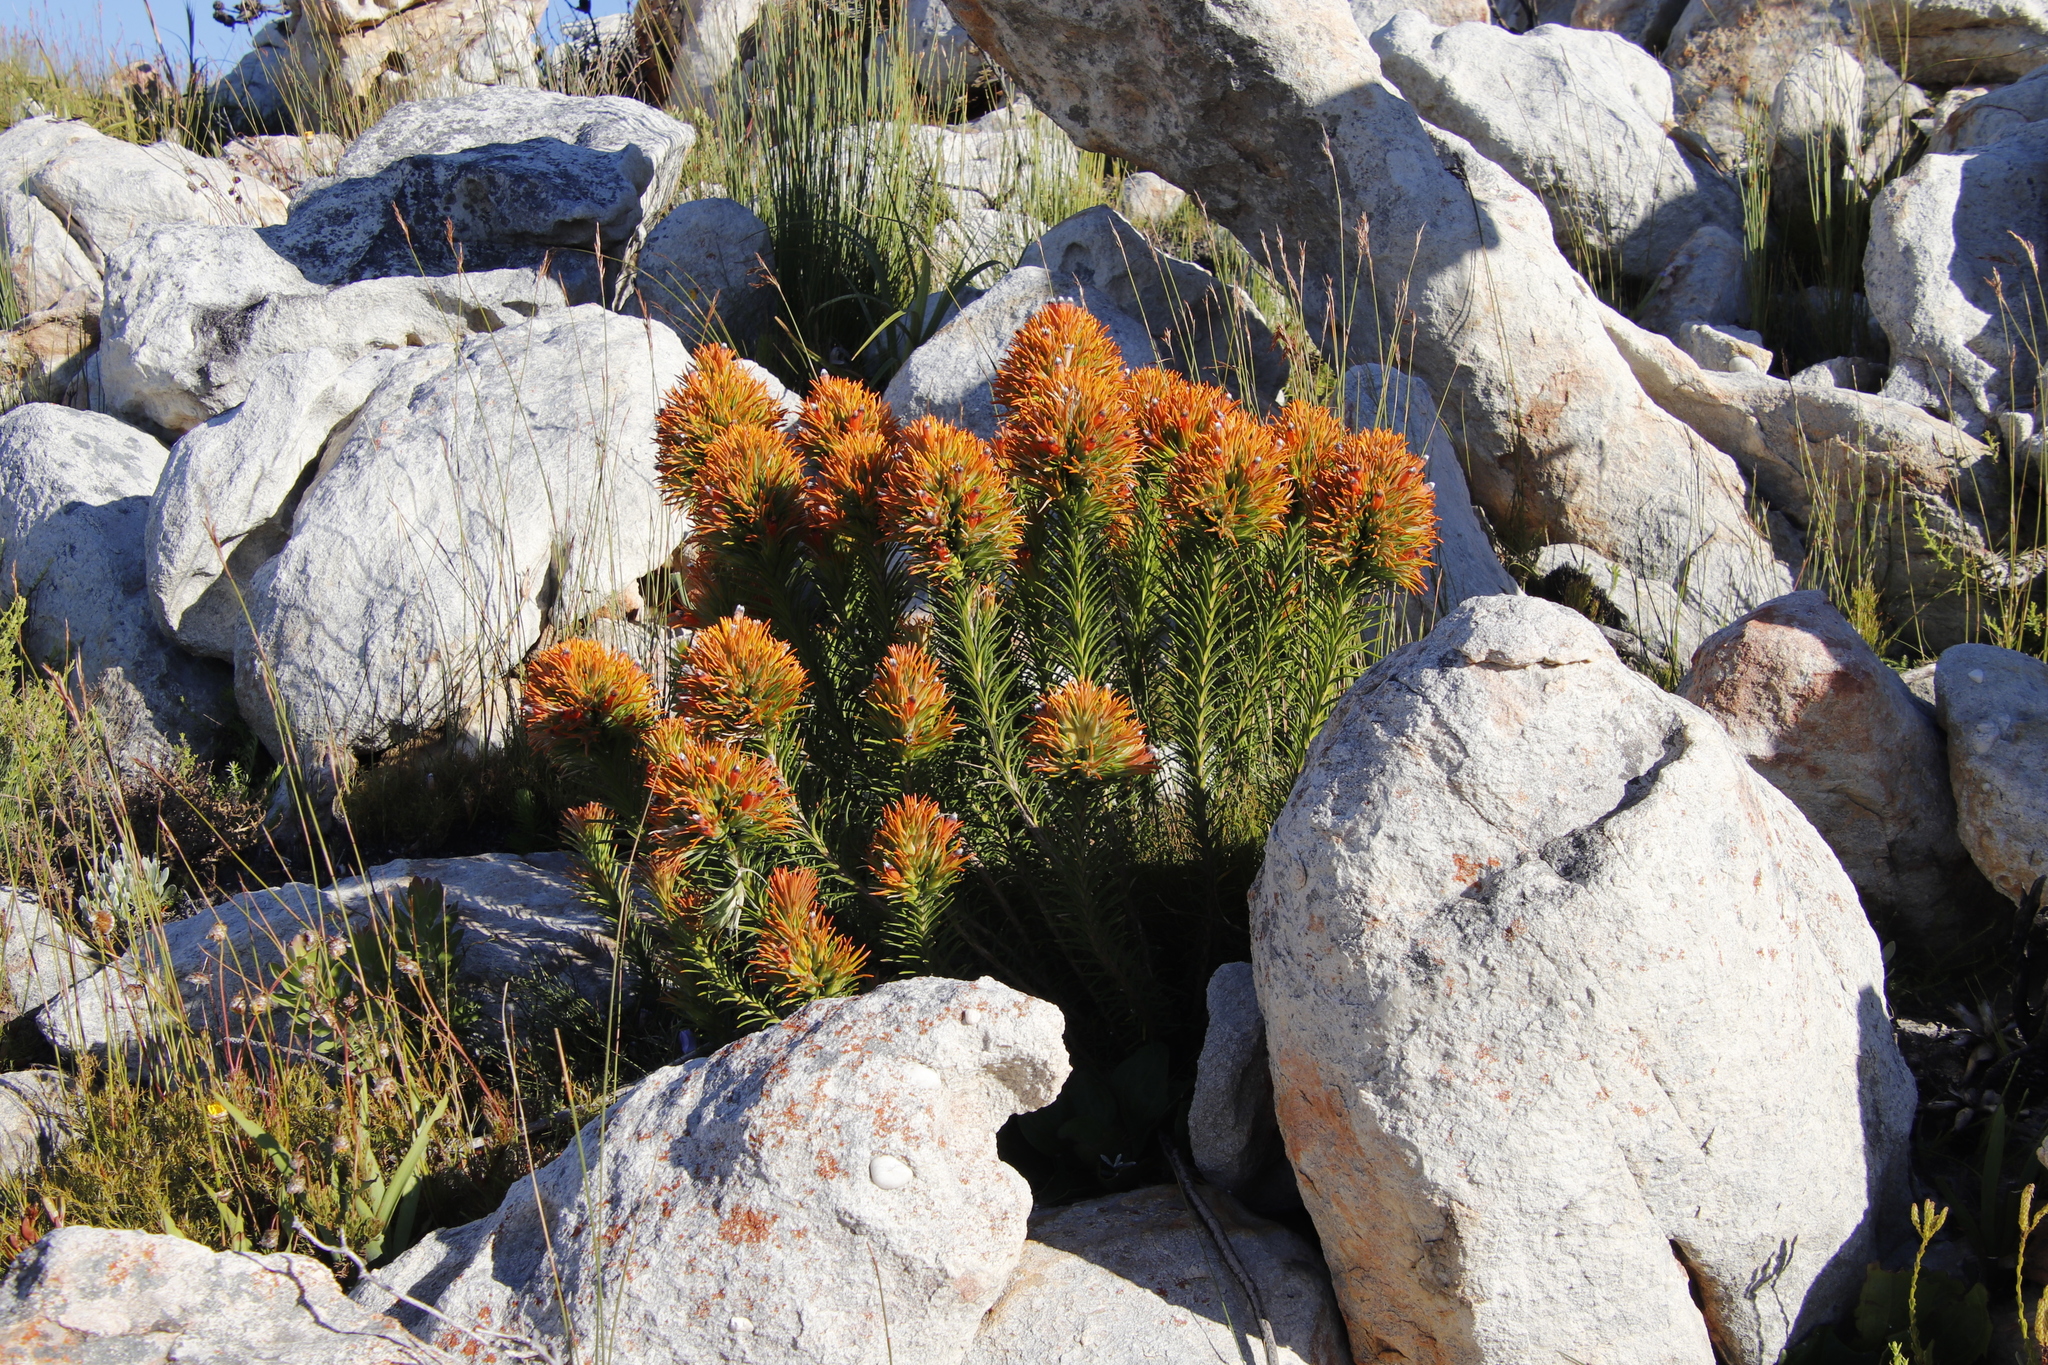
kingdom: Plantae
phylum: Tracheophyta
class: Magnoliopsida
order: Lamiales
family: Stilbaceae
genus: Retzia
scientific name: Retzia capensis
